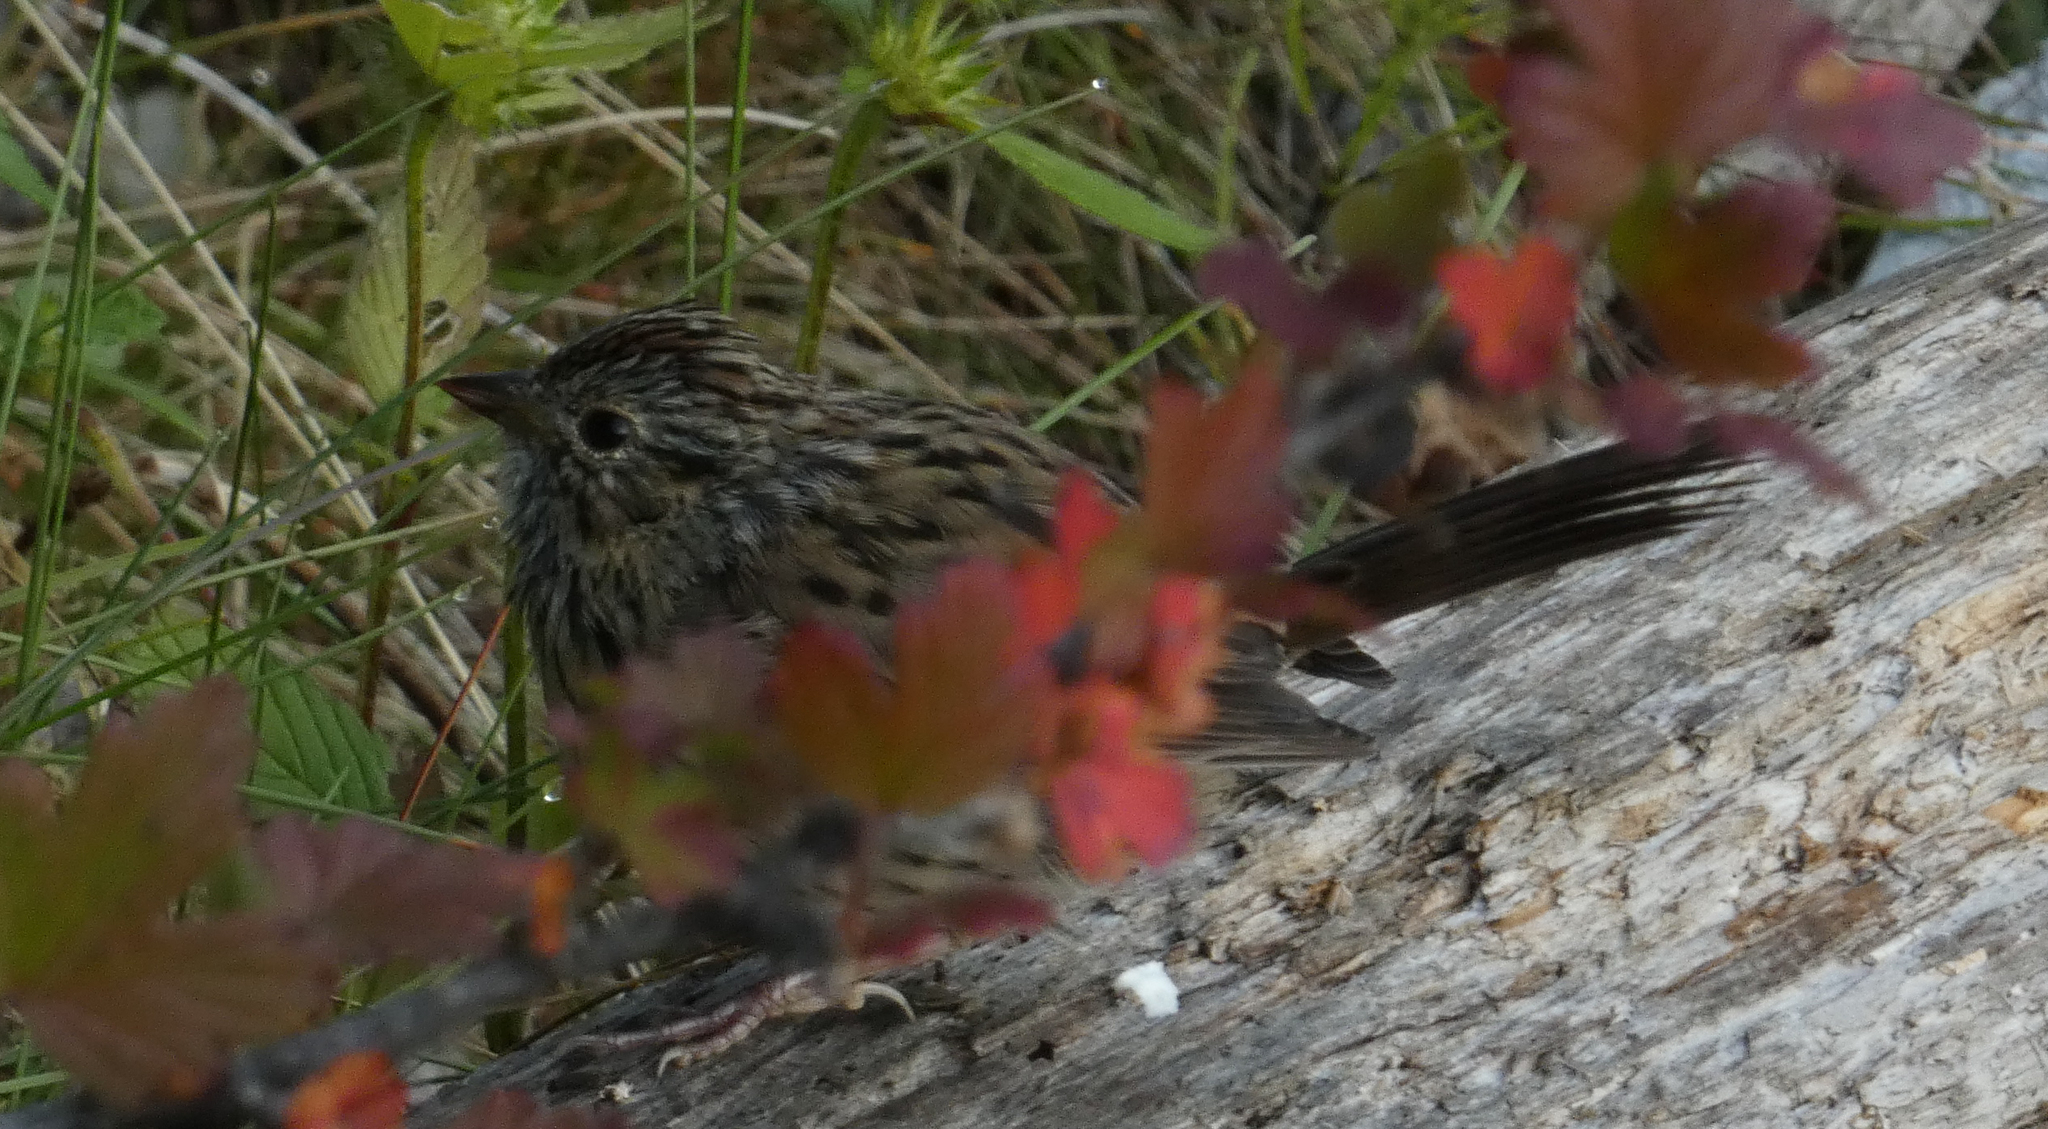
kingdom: Animalia
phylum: Chordata
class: Aves
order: Passeriformes
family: Passerellidae
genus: Melospiza
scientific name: Melospiza lincolnii
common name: Lincoln's sparrow
